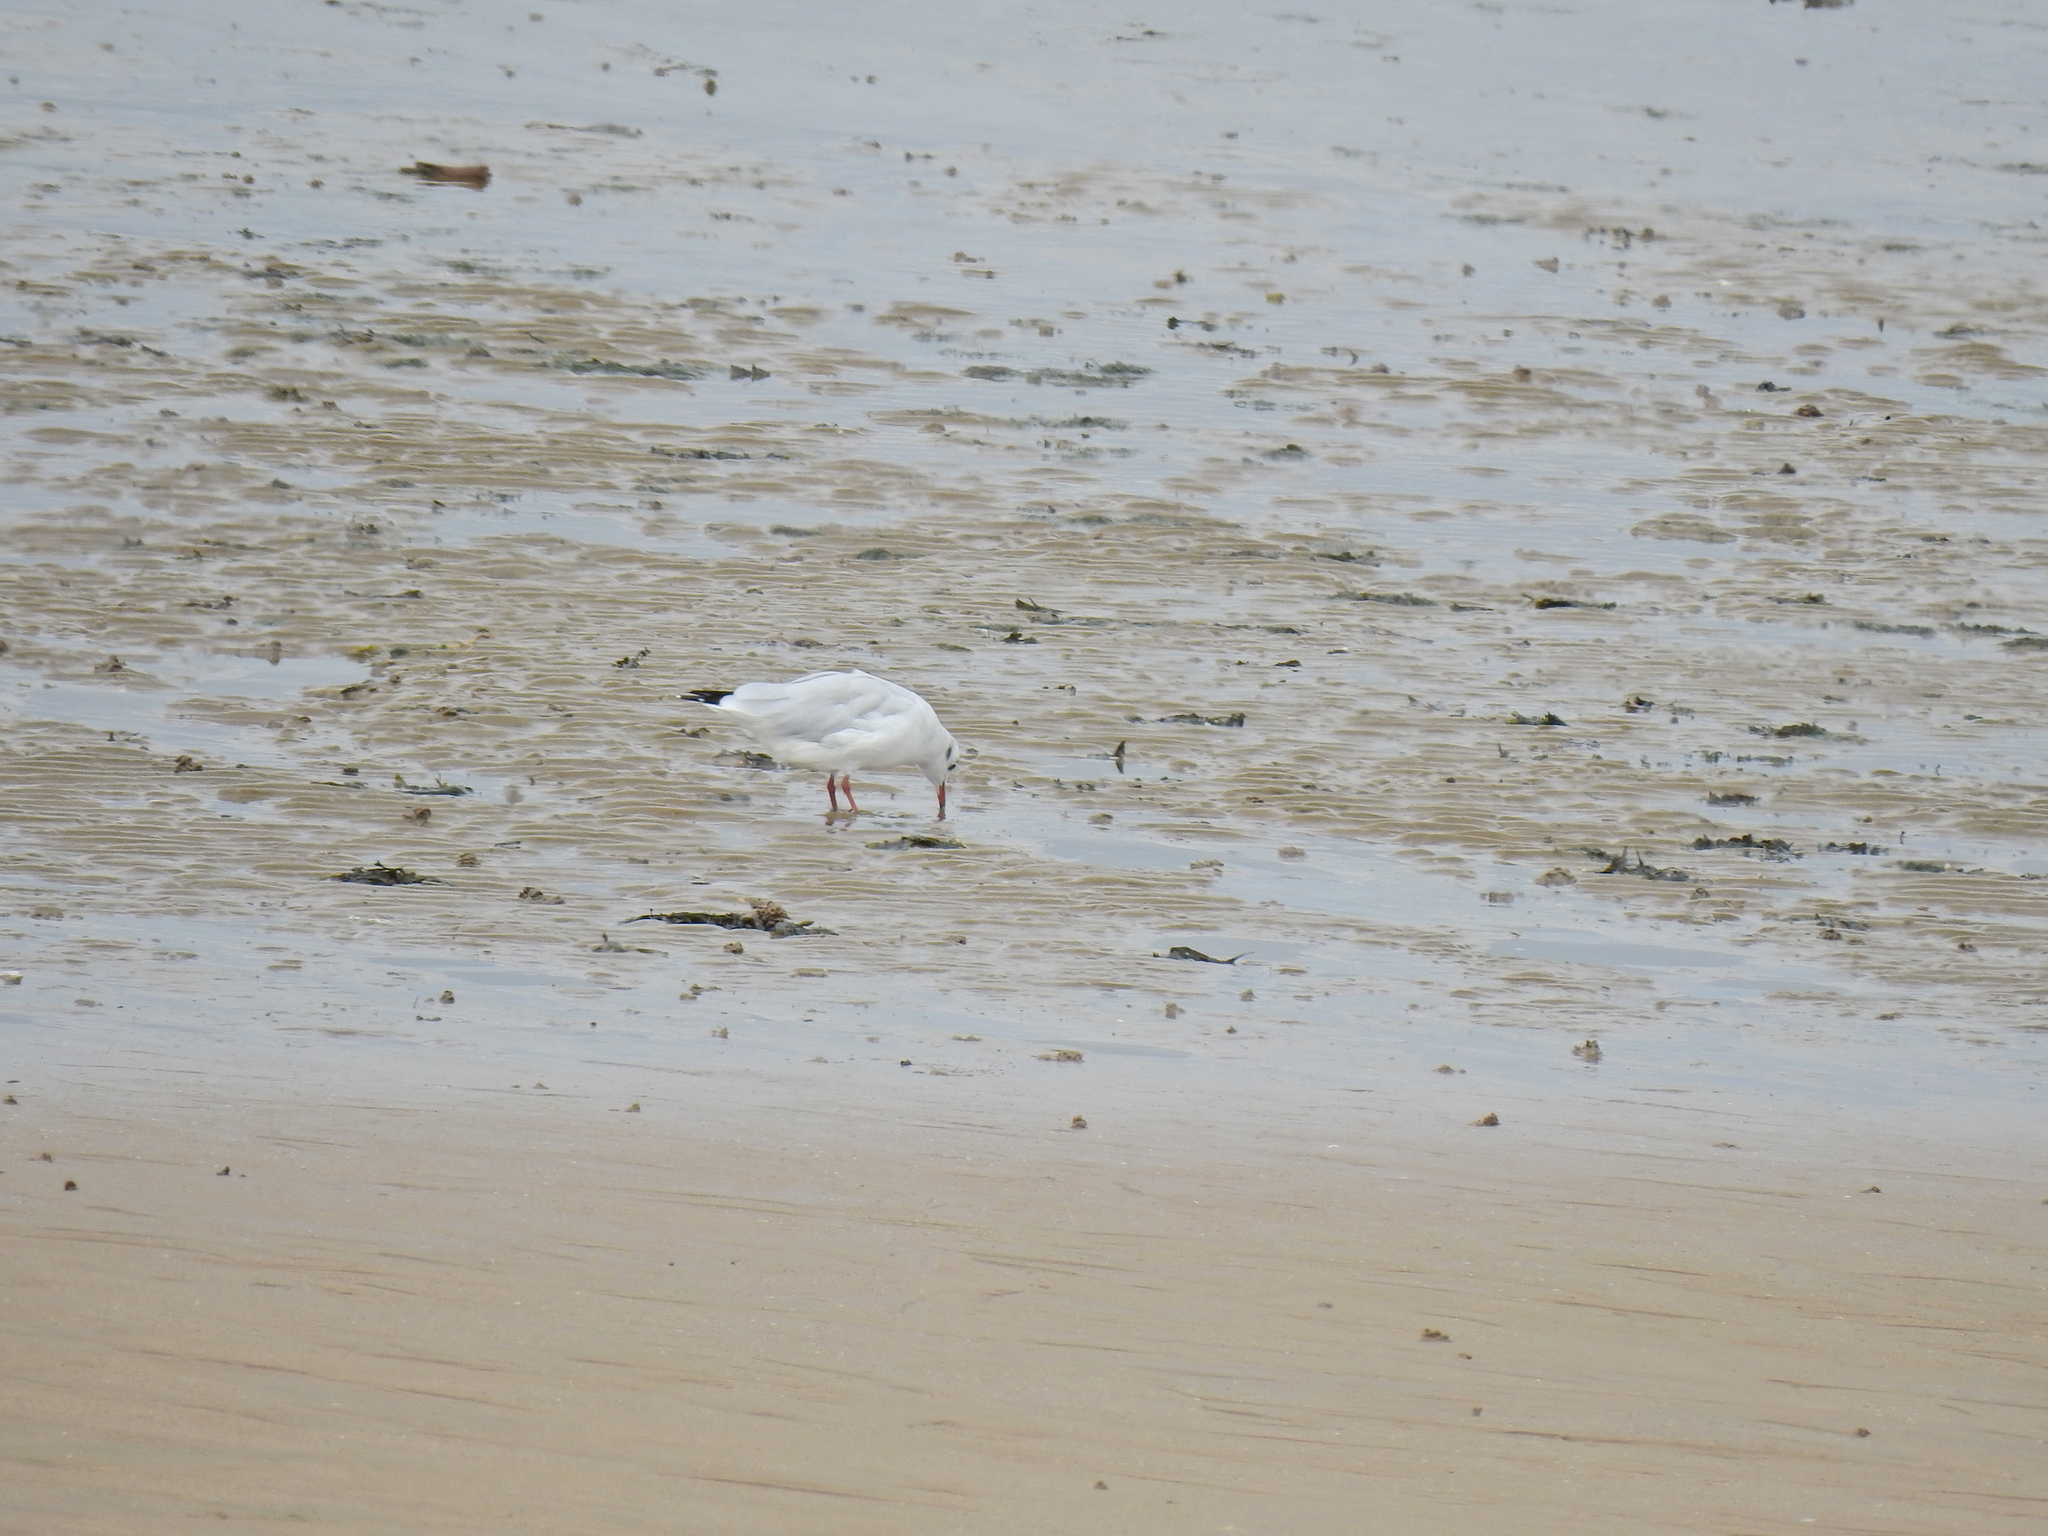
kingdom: Animalia
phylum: Chordata
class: Aves
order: Charadriiformes
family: Laridae
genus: Chroicocephalus
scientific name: Chroicocephalus ridibundus
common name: Black-headed gull
